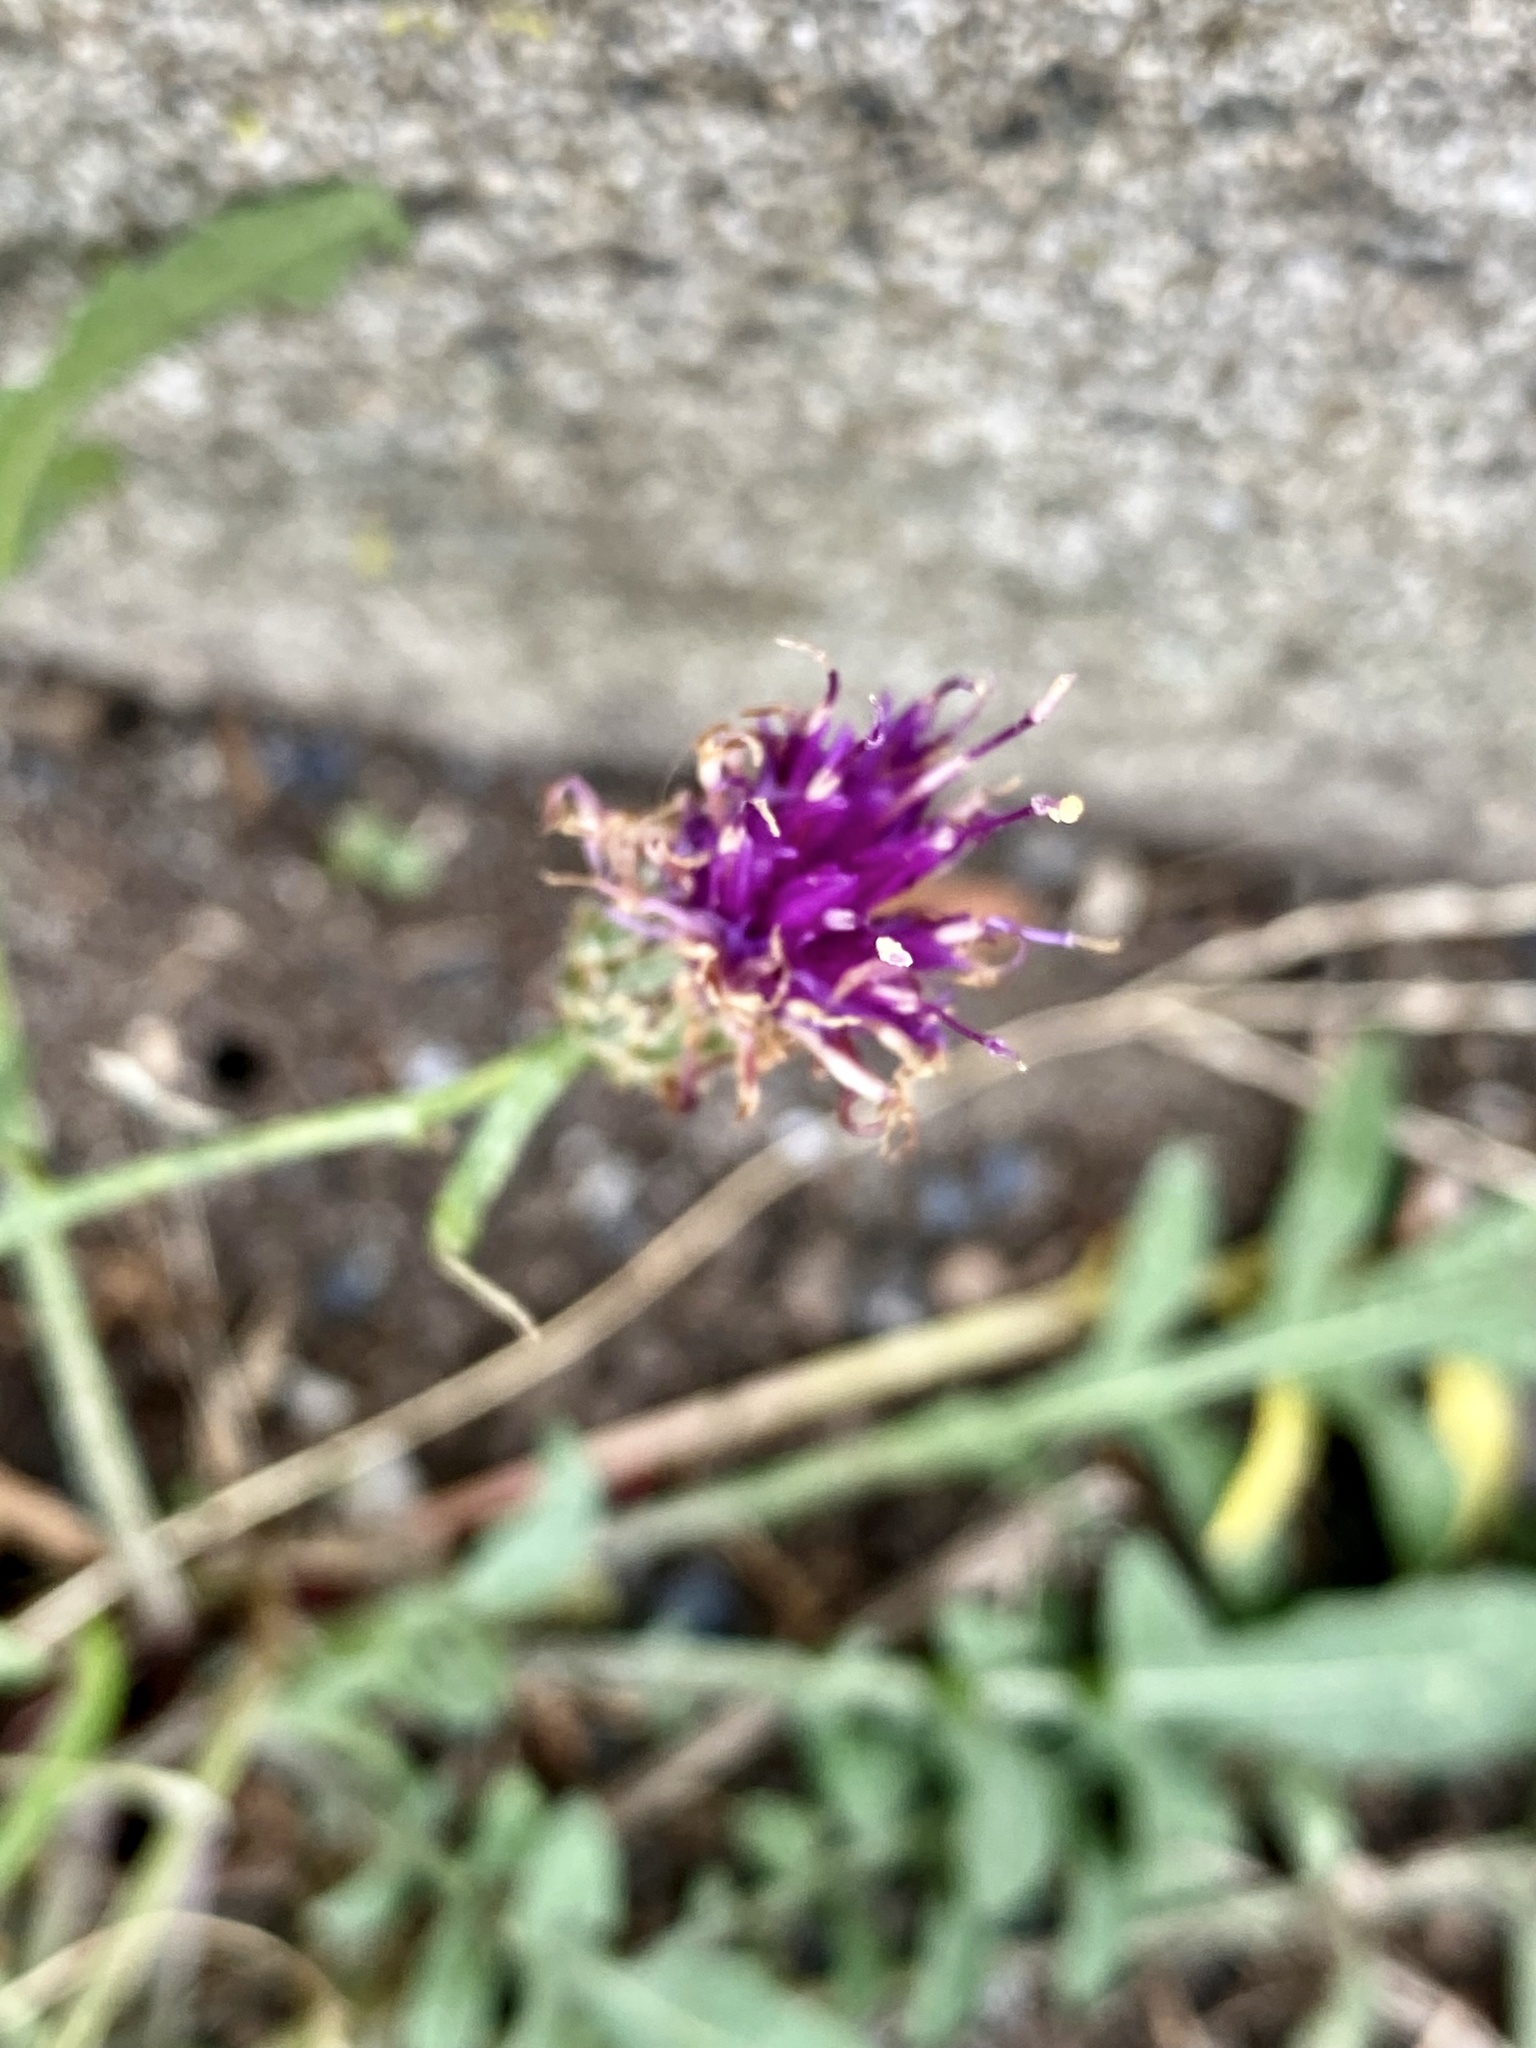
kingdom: Plantae
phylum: Tracheophyta
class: Magnoliopsida
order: Asterales
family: Asteraceae
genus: Centaurea
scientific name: Centaurea stoebe
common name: Spotted knapweed
